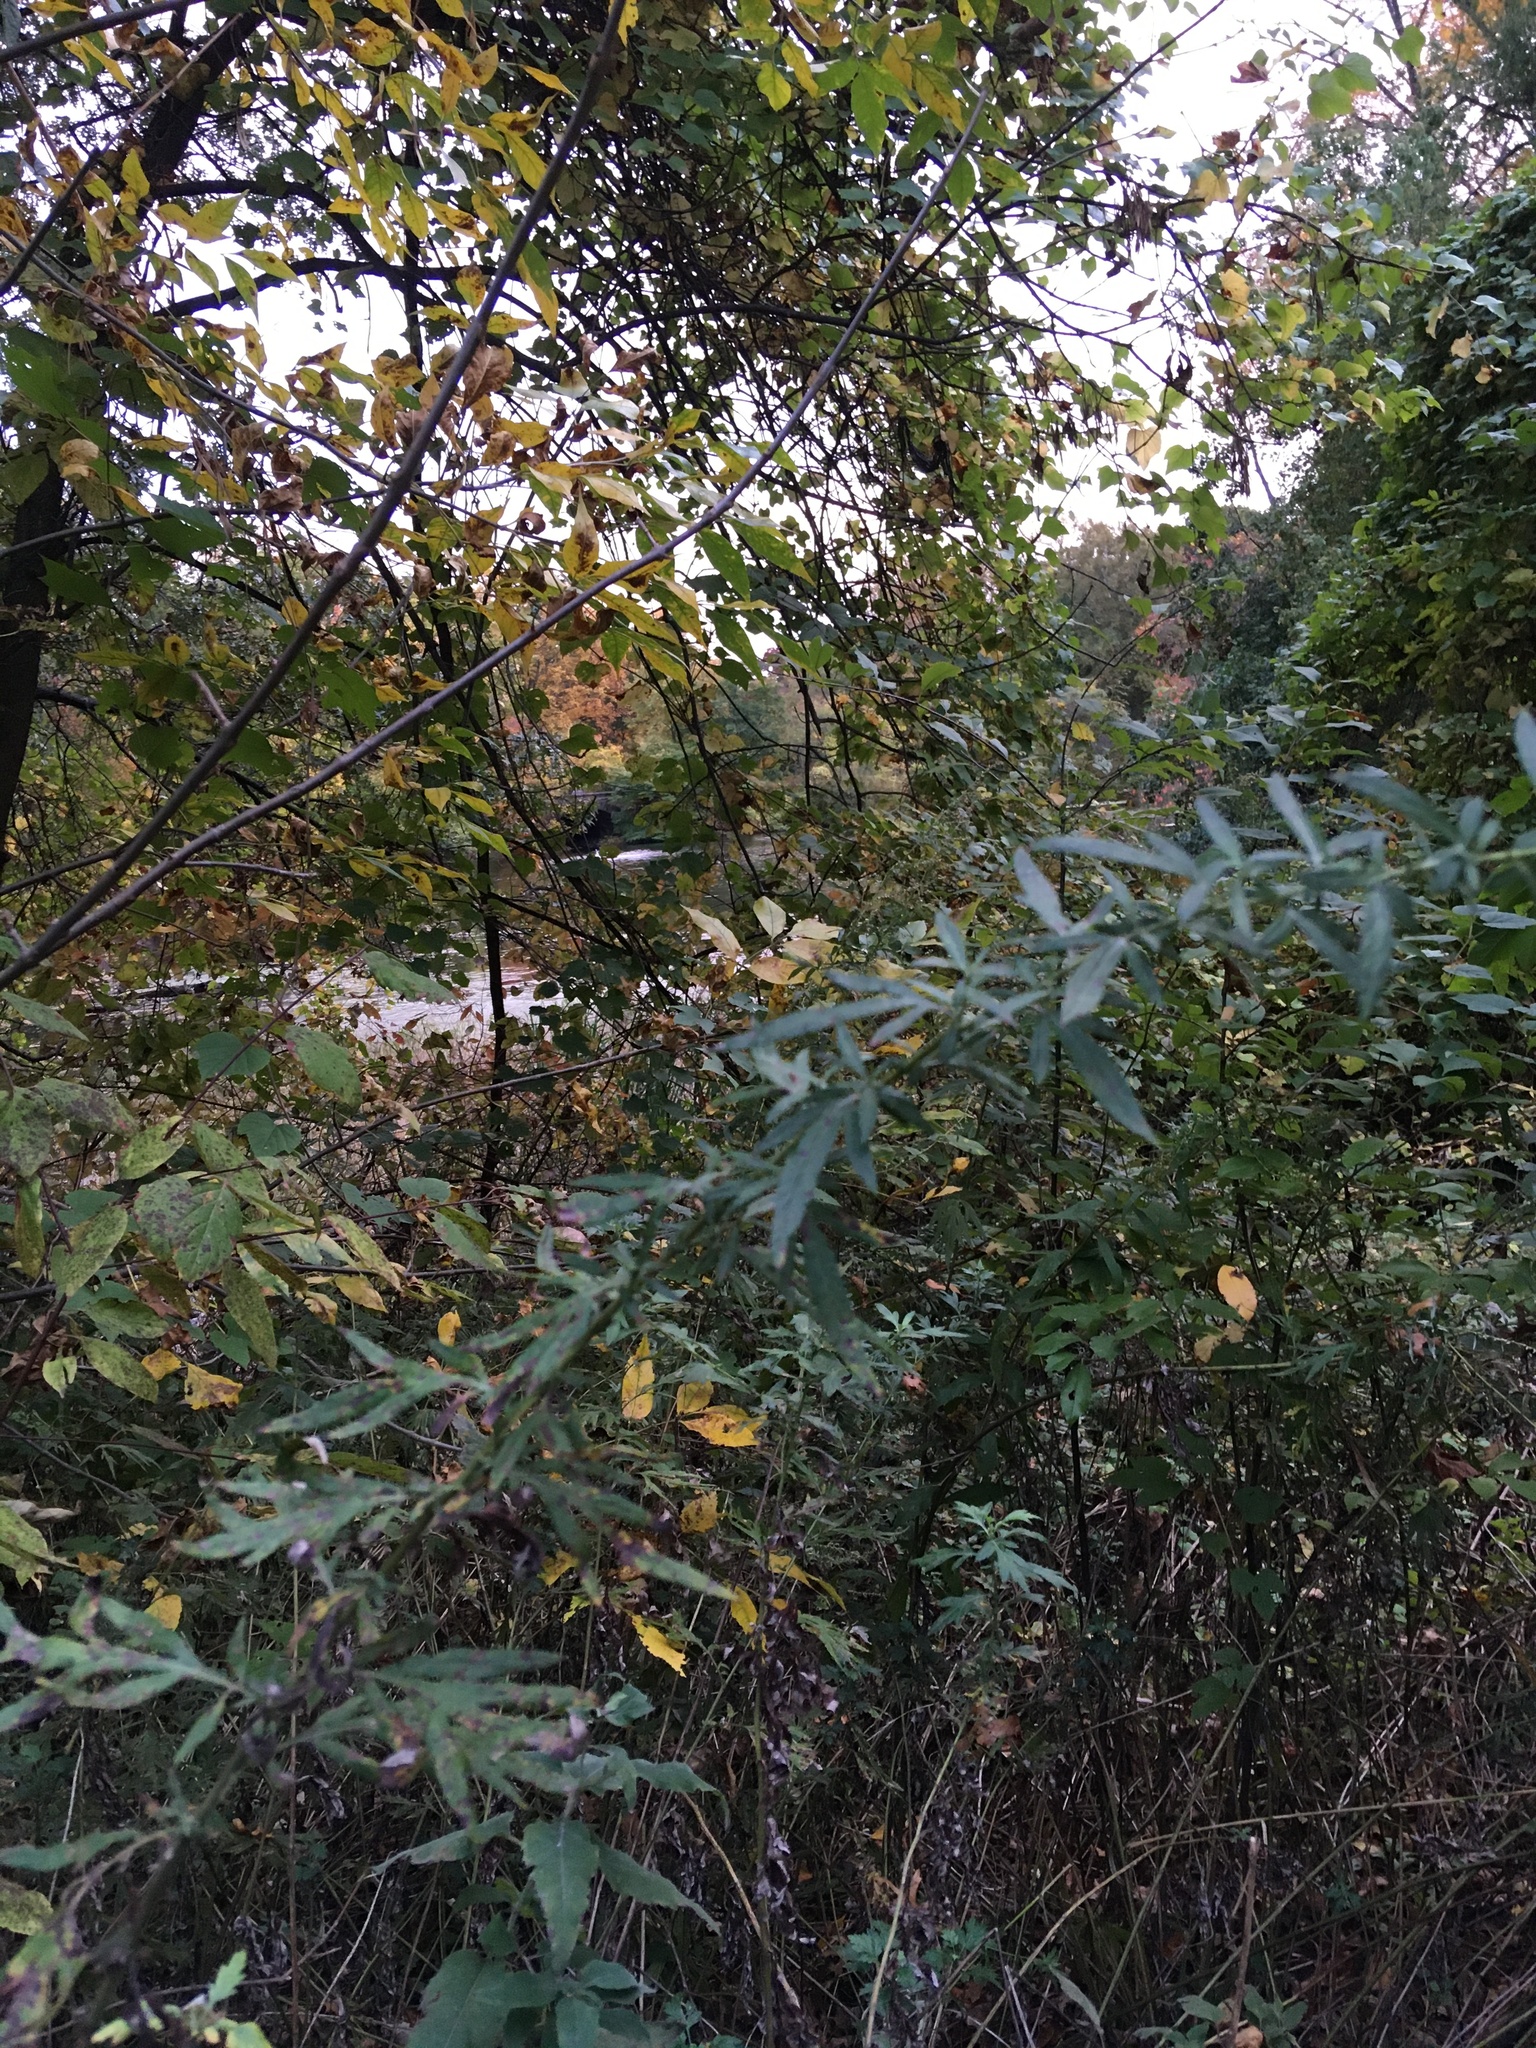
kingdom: Plantae
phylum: Tracheophyta
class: Magnoliopsida
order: Asterales
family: Asteraceae
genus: Artemisia
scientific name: Artemisia vulgaris
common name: Mugwort
